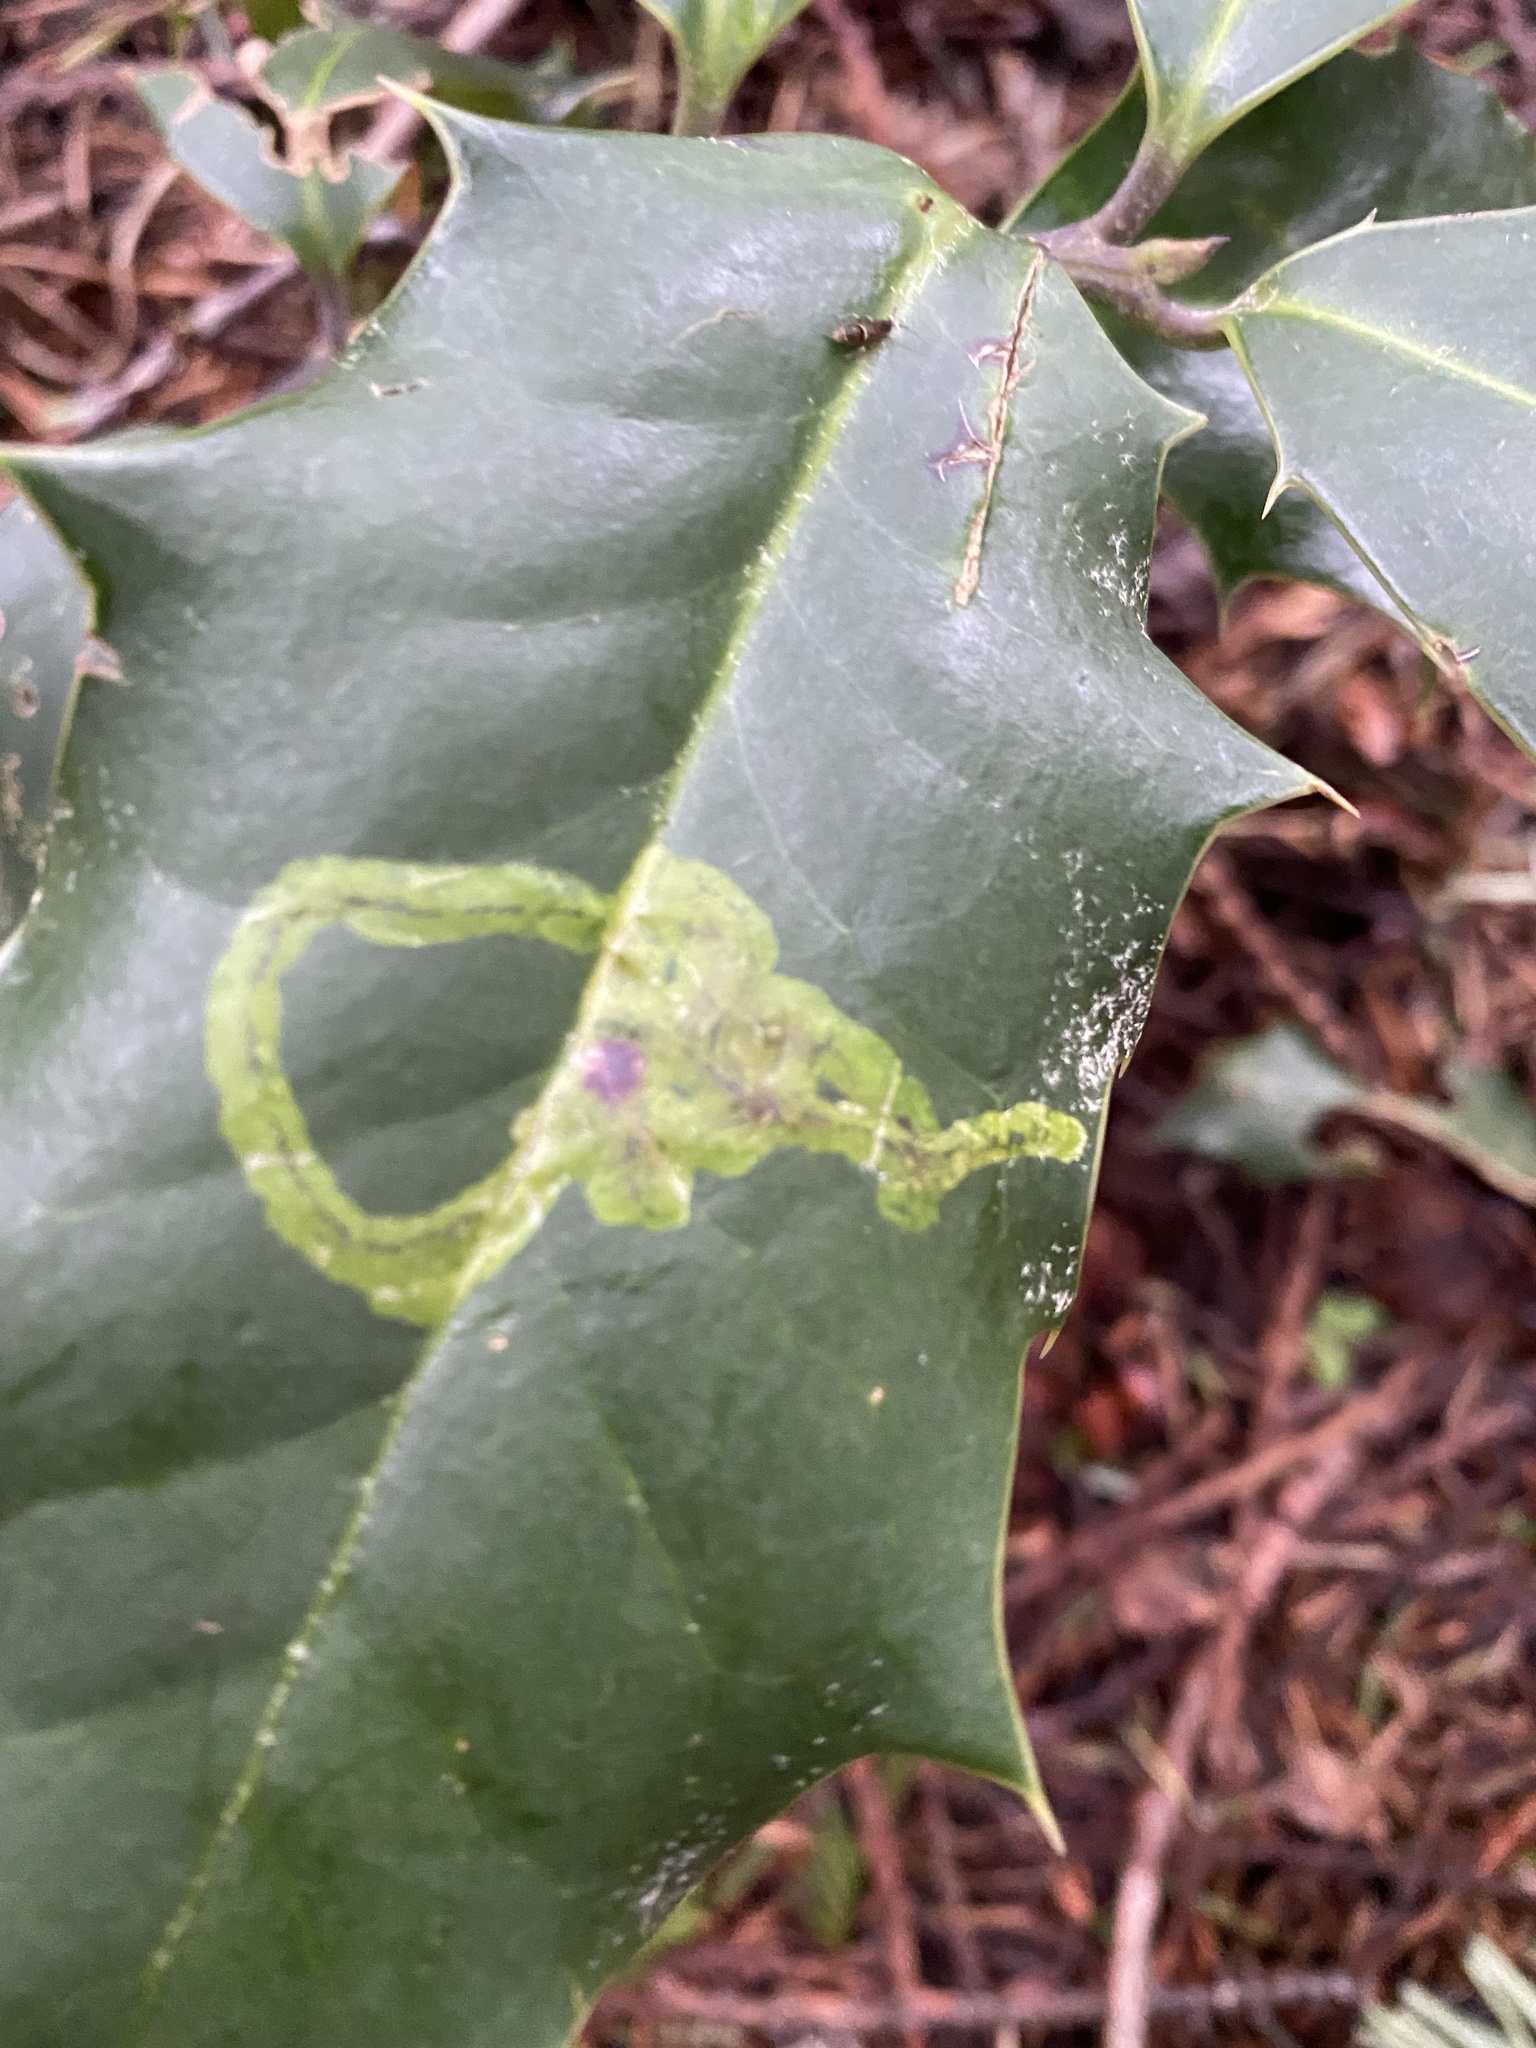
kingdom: Animalia
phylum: Arthropoda
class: Insecta
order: Diptera
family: Agromyzidae
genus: Phytomyza
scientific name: Phytomyza ilicis
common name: Holly leafminer
